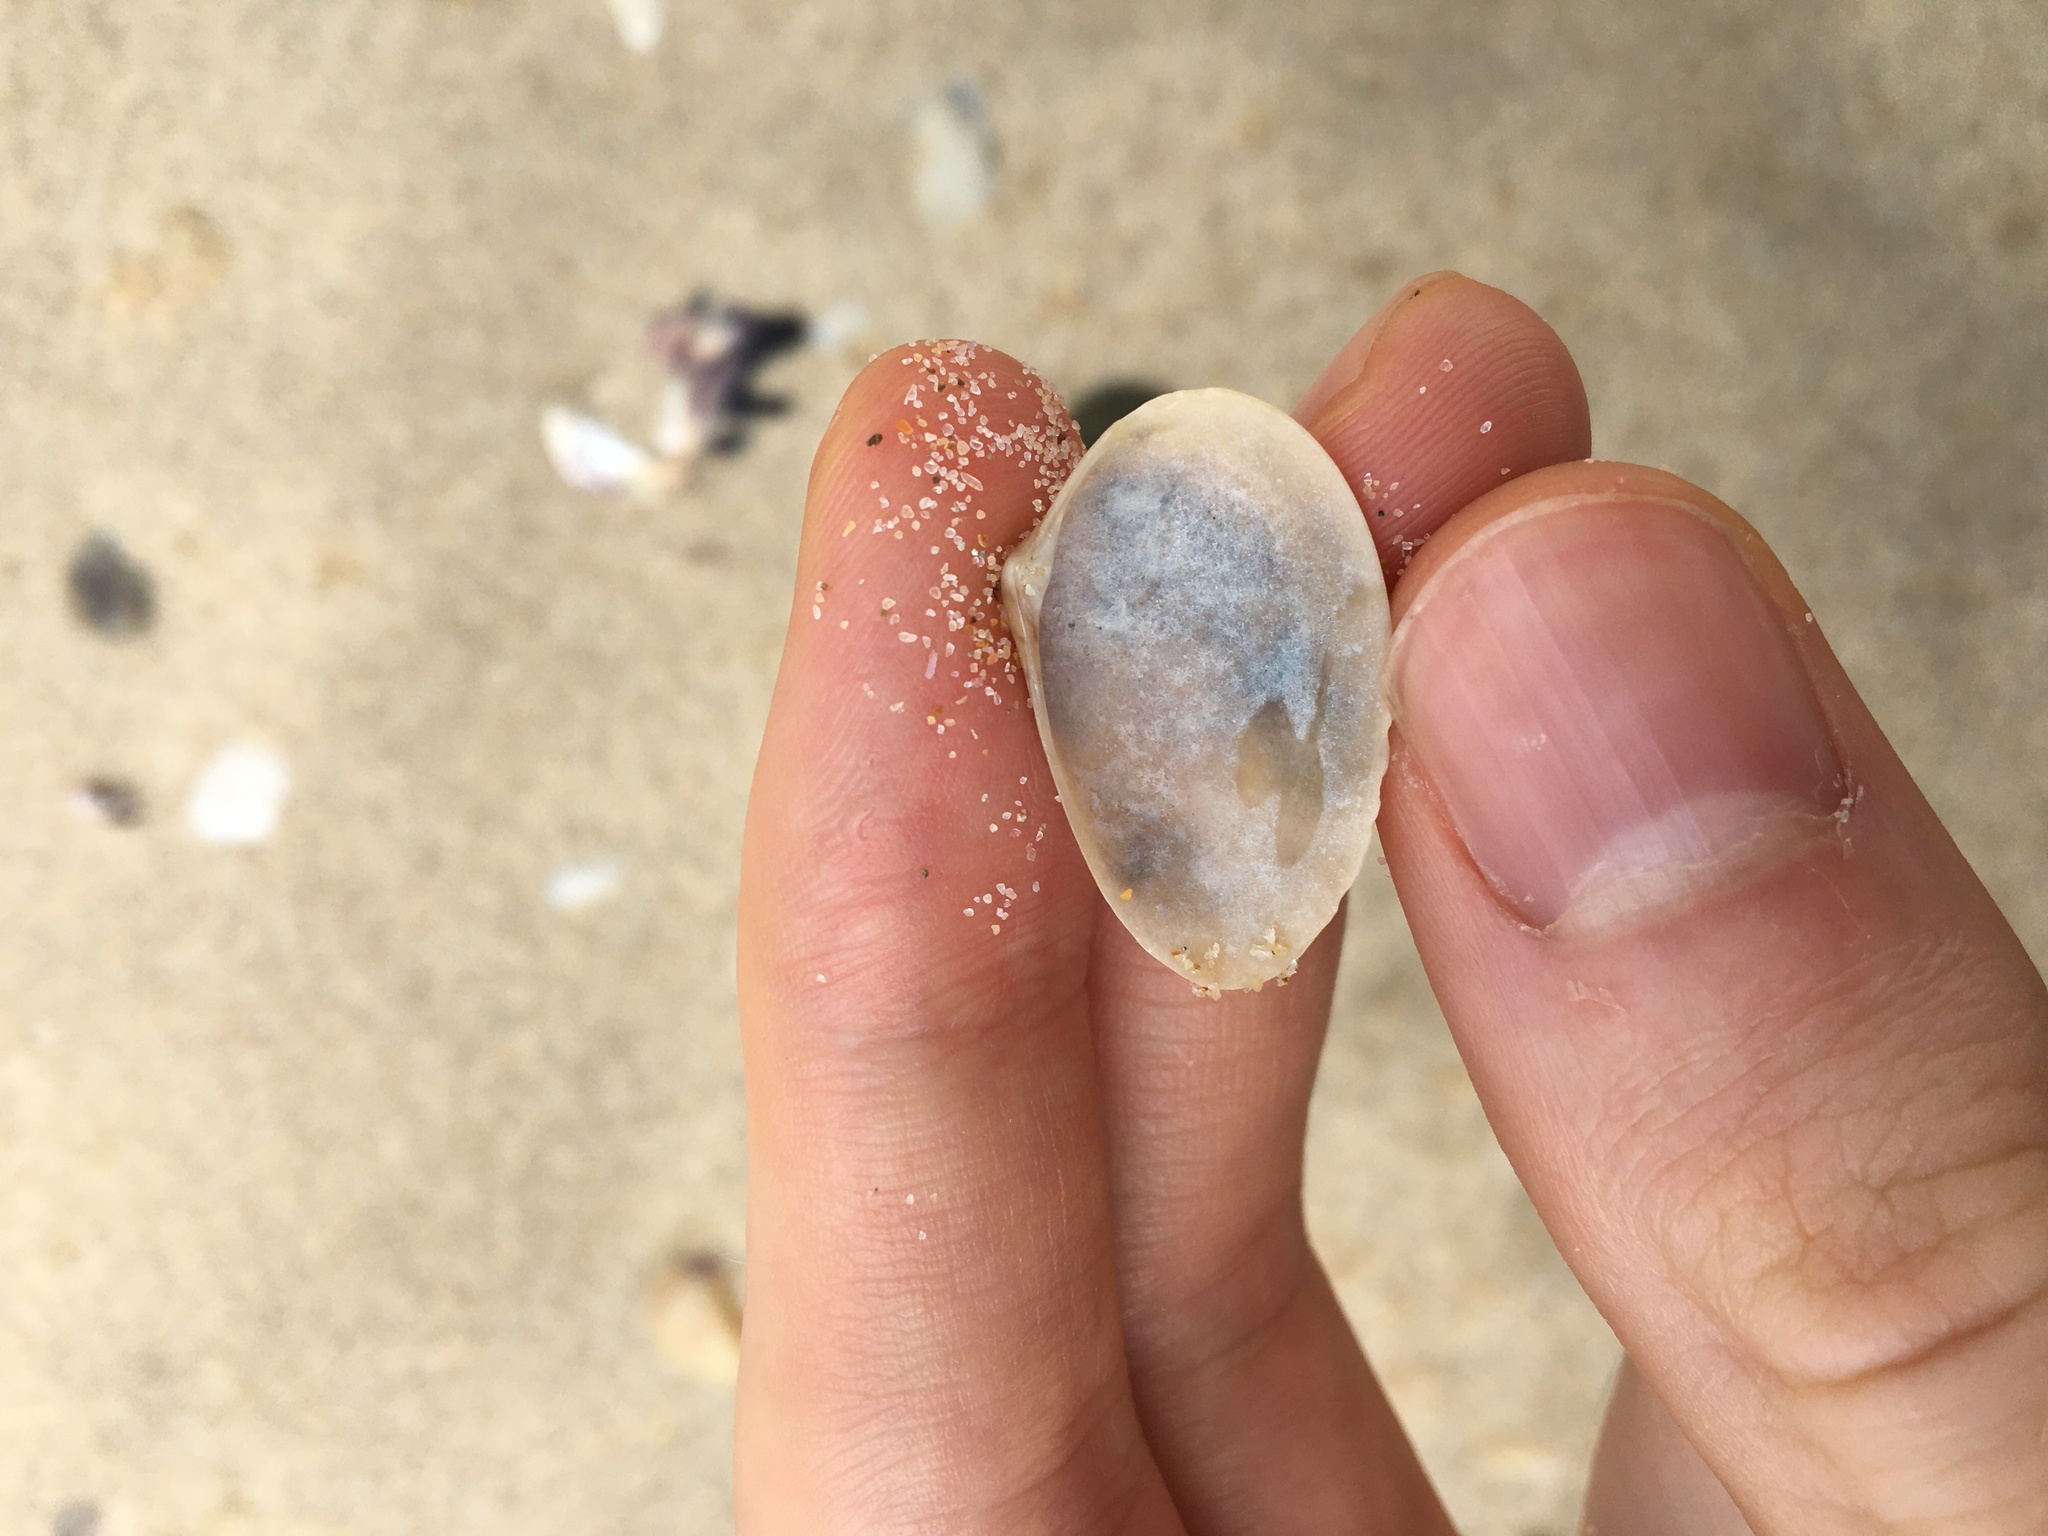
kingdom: Animalia
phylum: Mollusca
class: Bivalvia
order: Venerida
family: Veneridae
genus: Eumarcia
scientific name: Eumarcia fumigata
